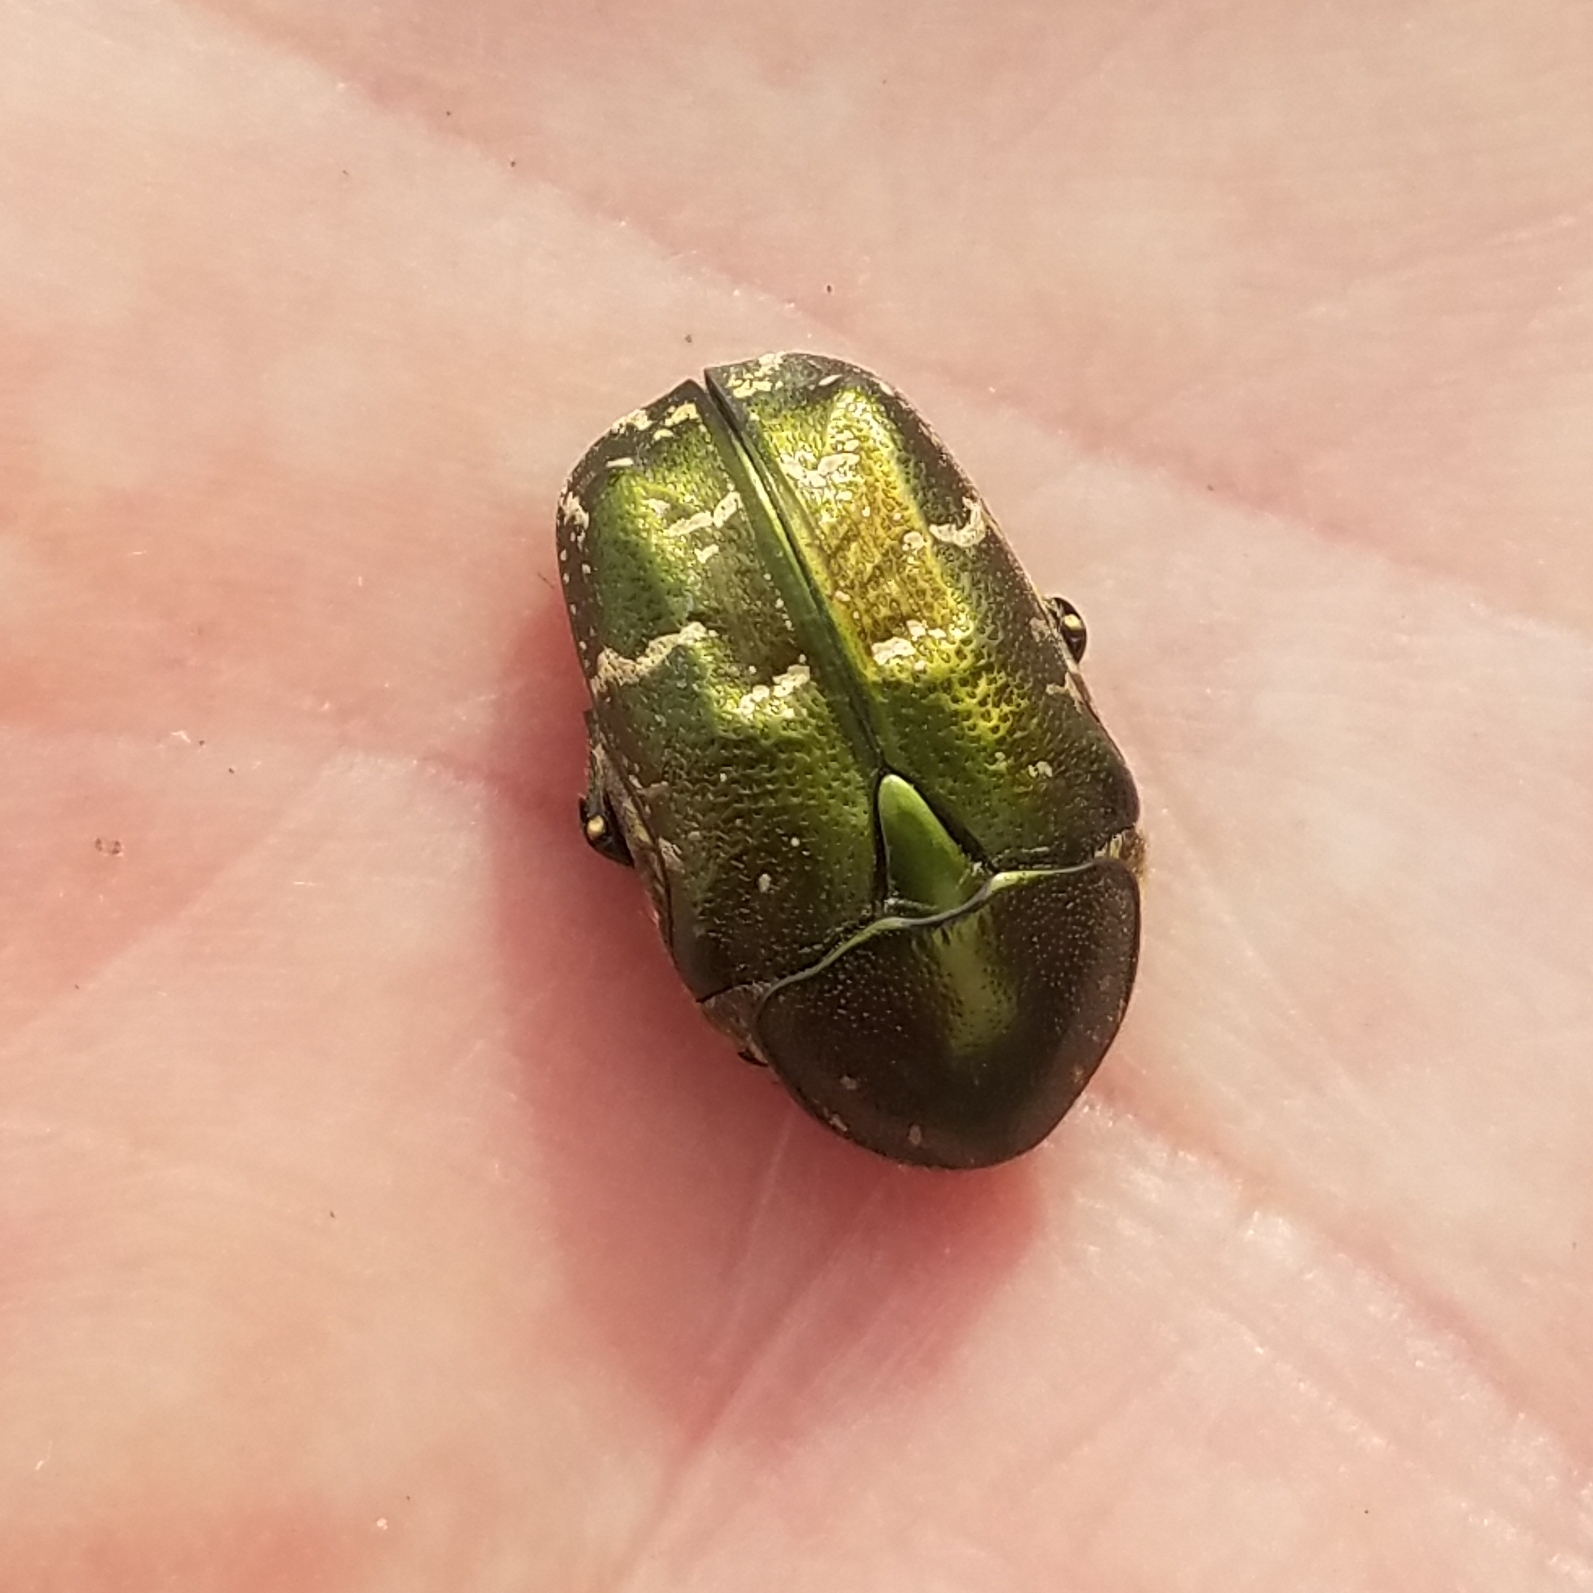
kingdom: Animalia
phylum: Arthropoda
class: Insecta
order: Coleoptera
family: Scarabaeidae
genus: Protaetia
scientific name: Protaetia cuprea
